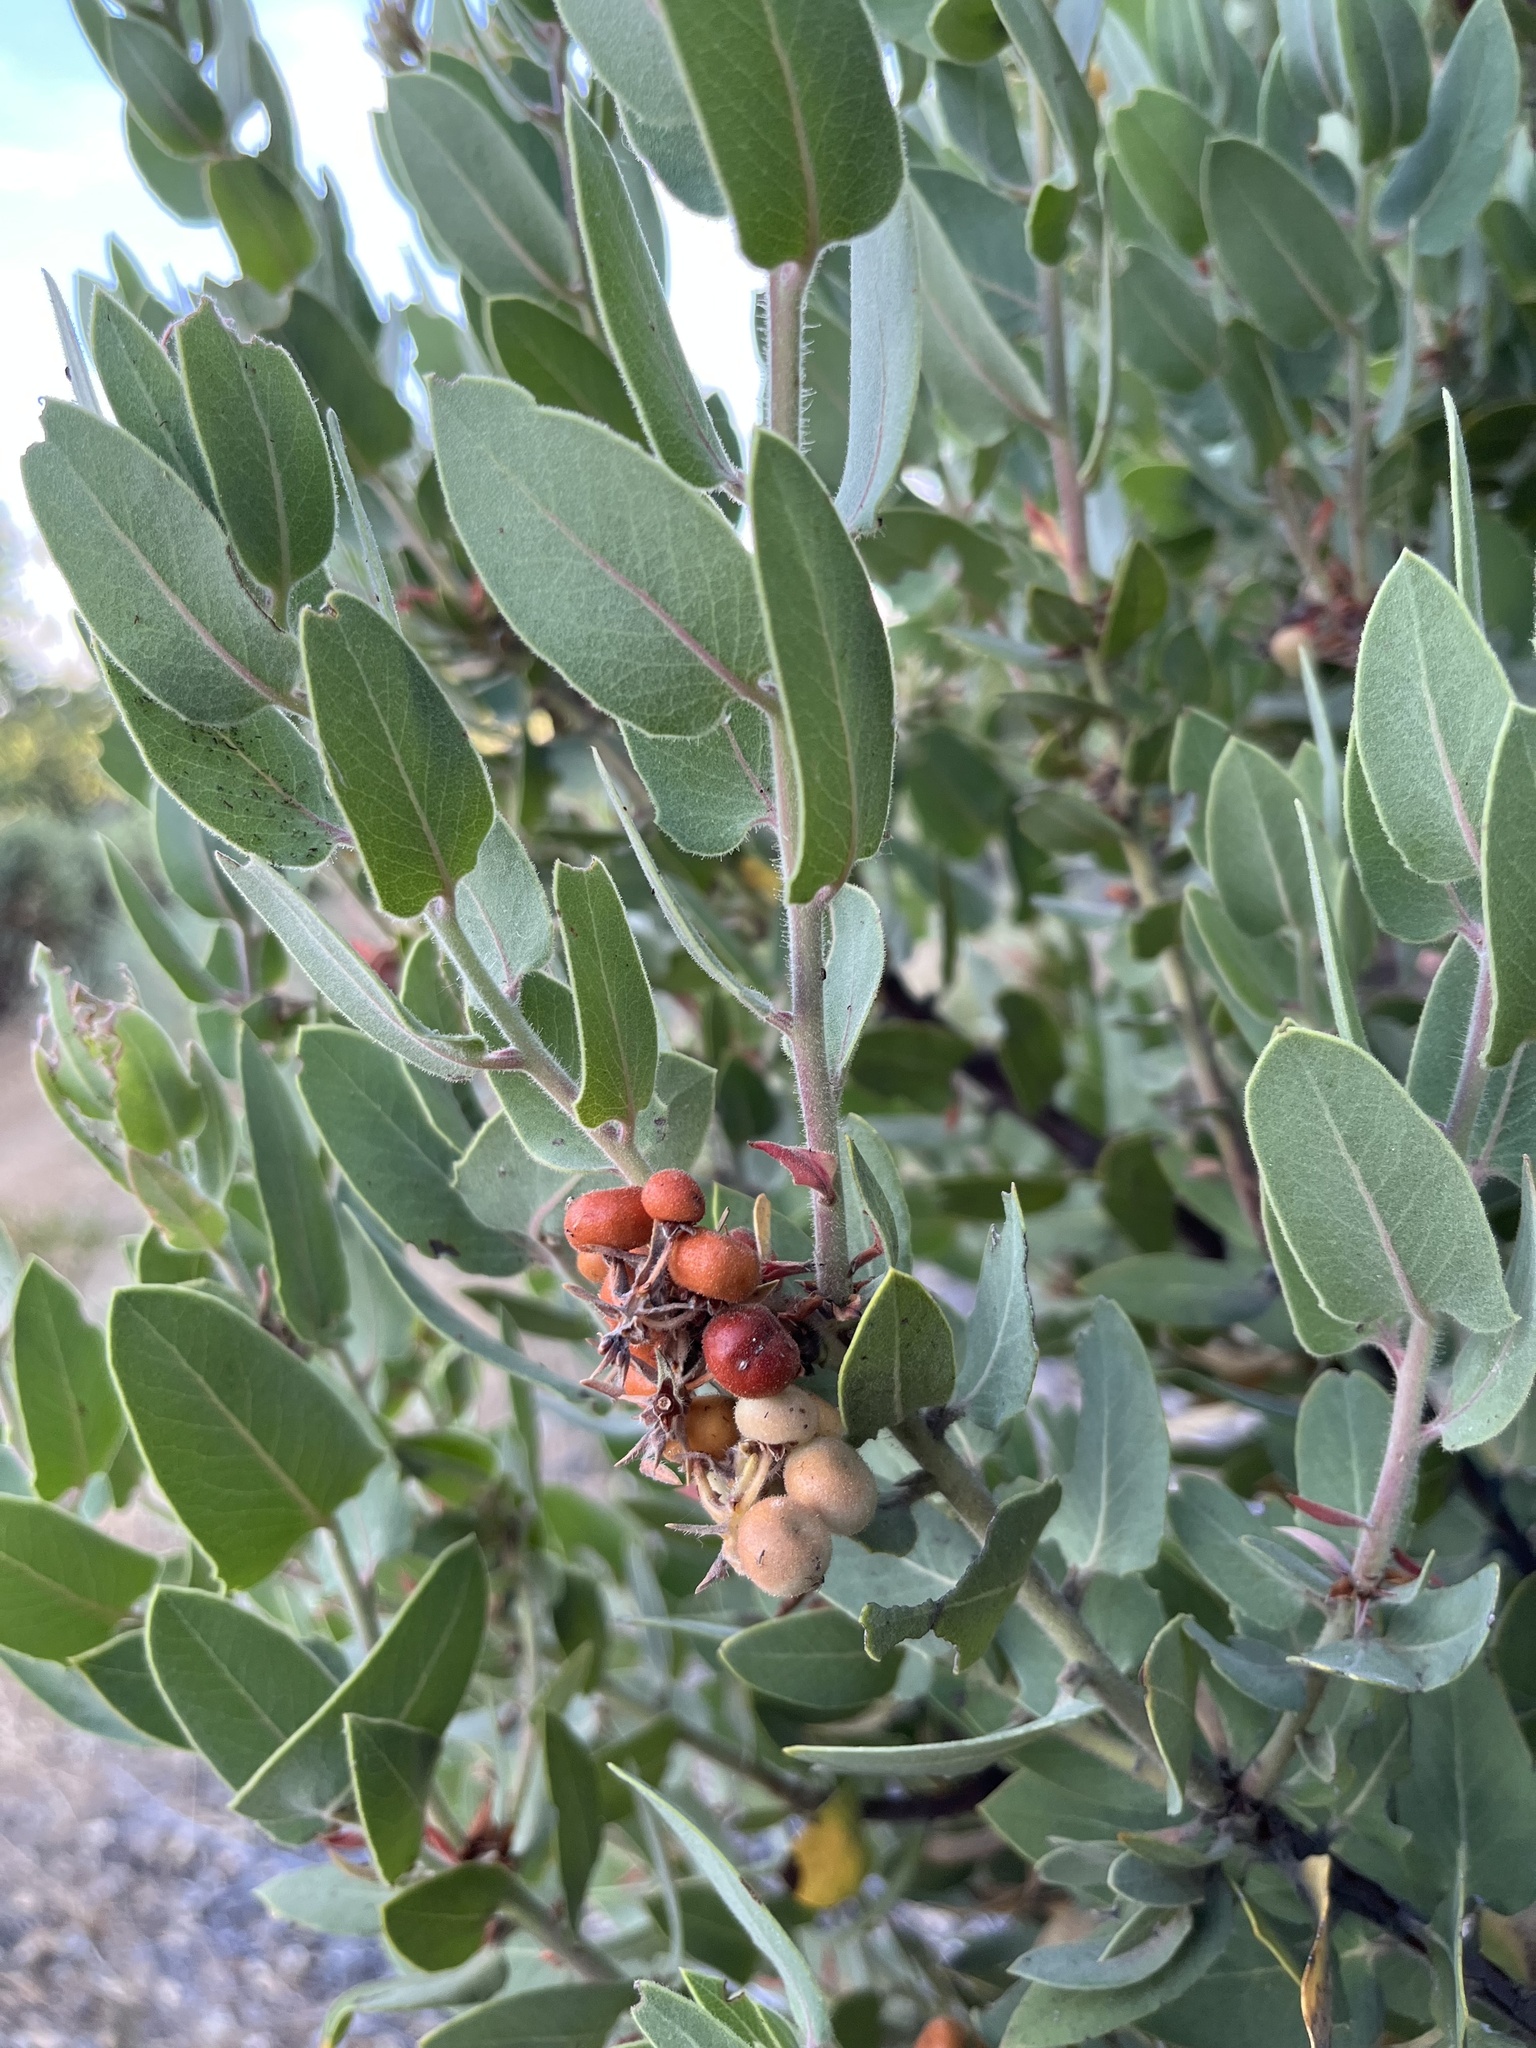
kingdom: Plantae
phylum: Tracheophyta
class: Magnoliopsida
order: Ericales
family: Ericaceae
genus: Arctostaphylos
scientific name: Arctostaphylos hooveri
